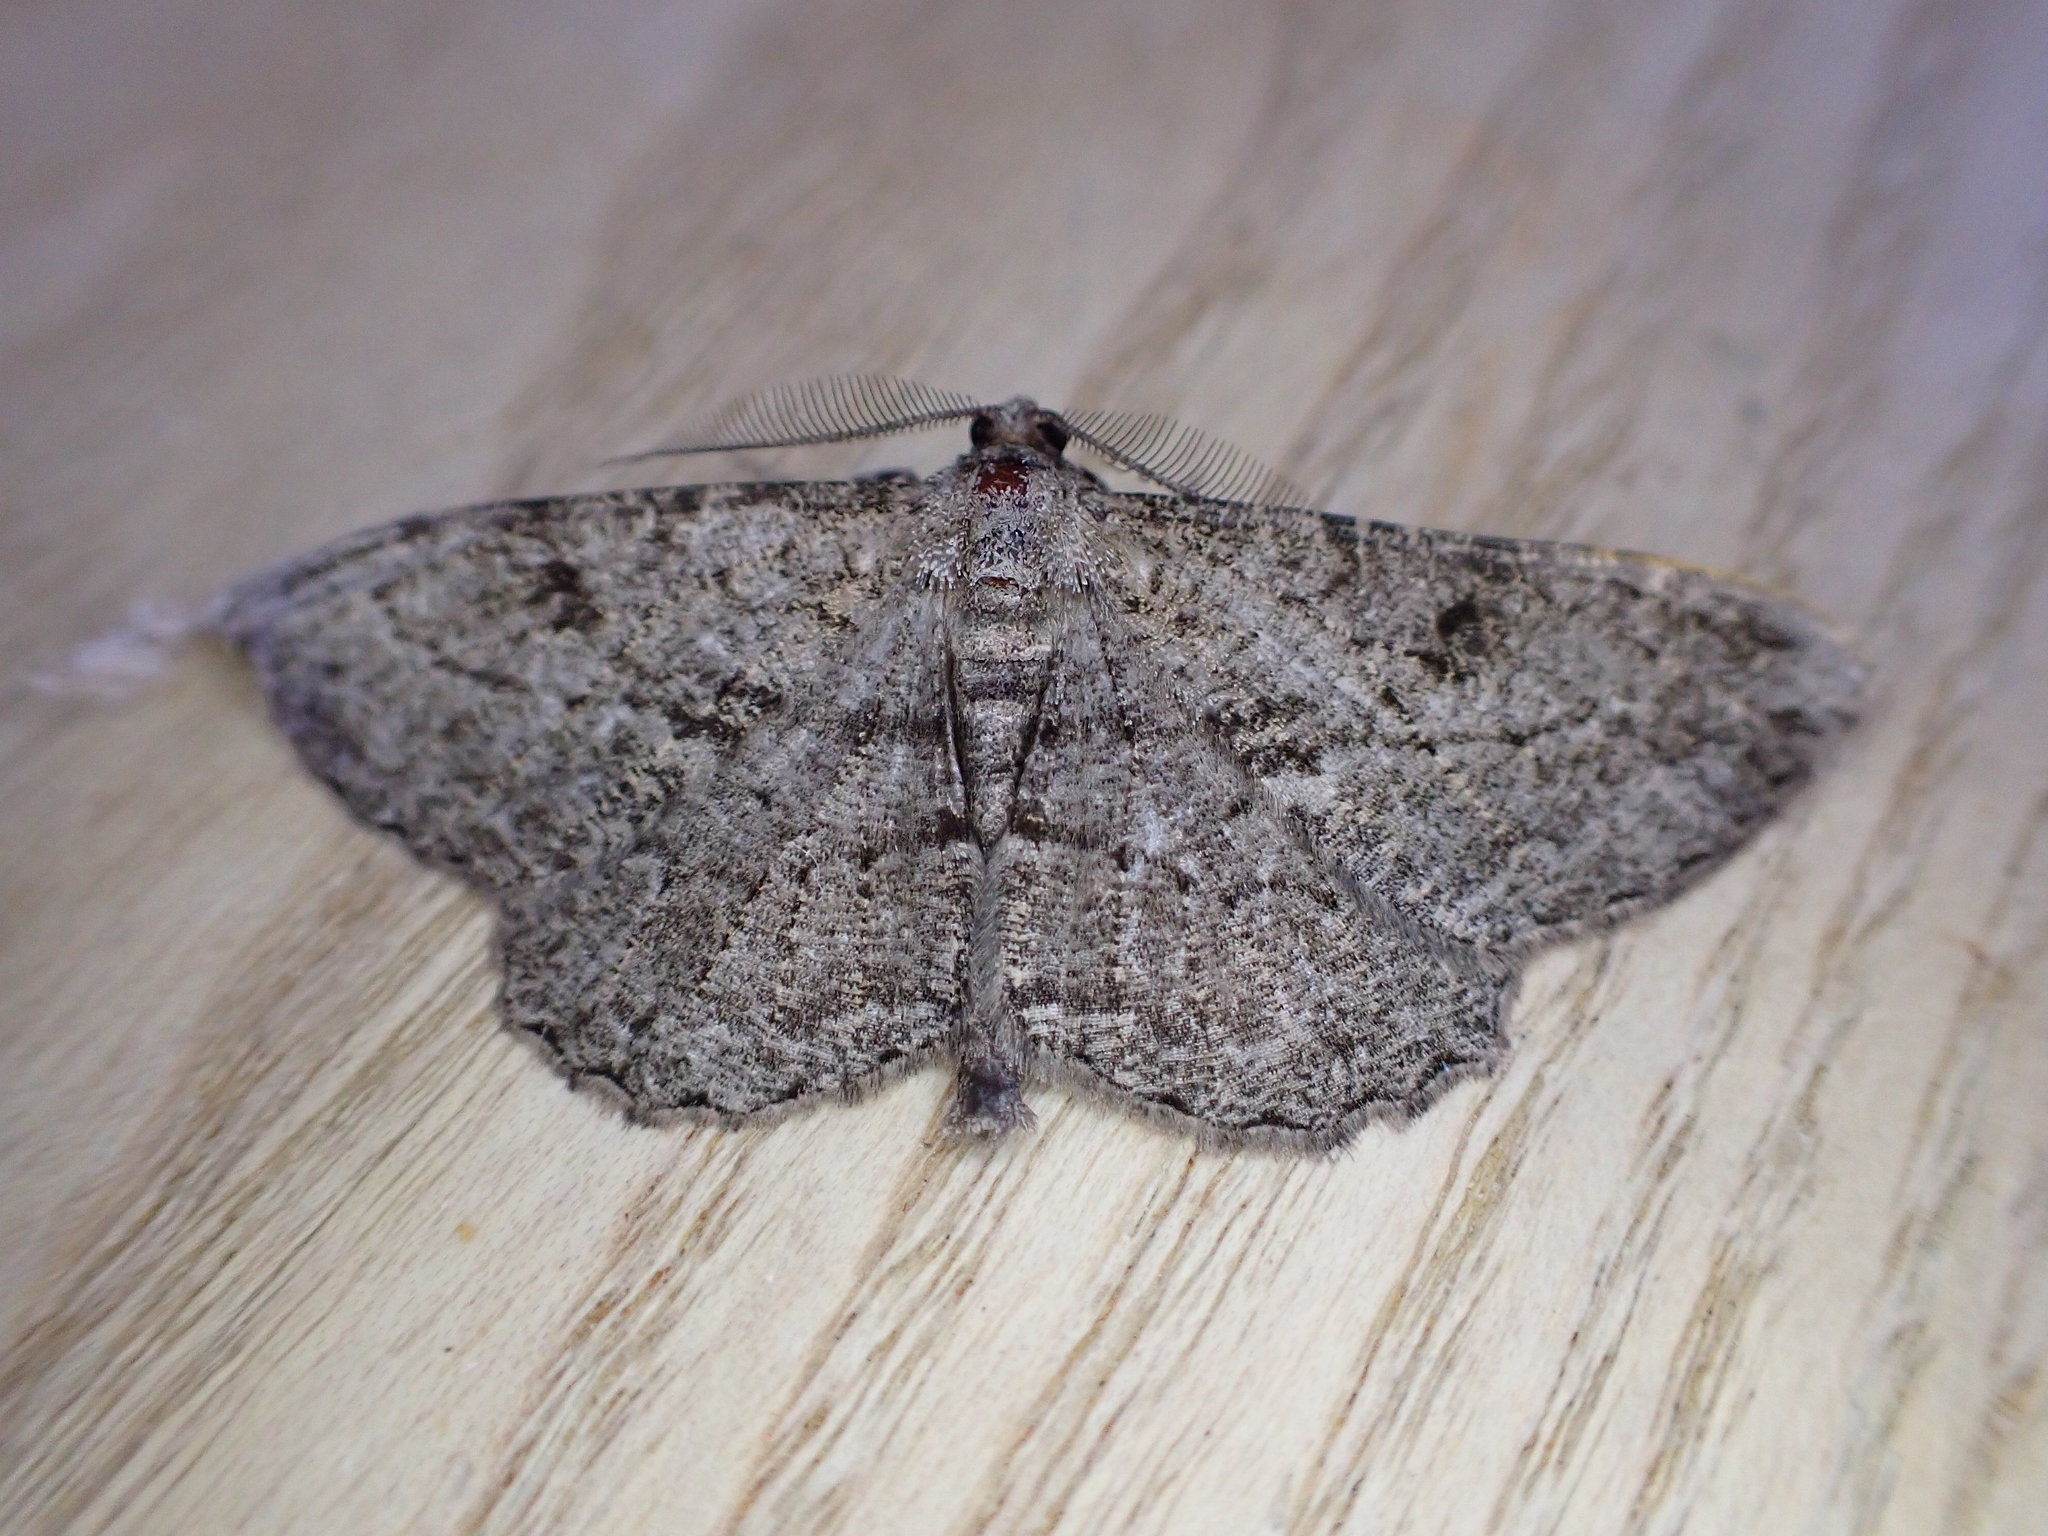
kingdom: Animalia
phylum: Arthropoda
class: Insecta
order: Lepidoptera
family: Geometridae
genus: Peribatodes
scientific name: Peribatodes rhomboidaria
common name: Willow beauty
